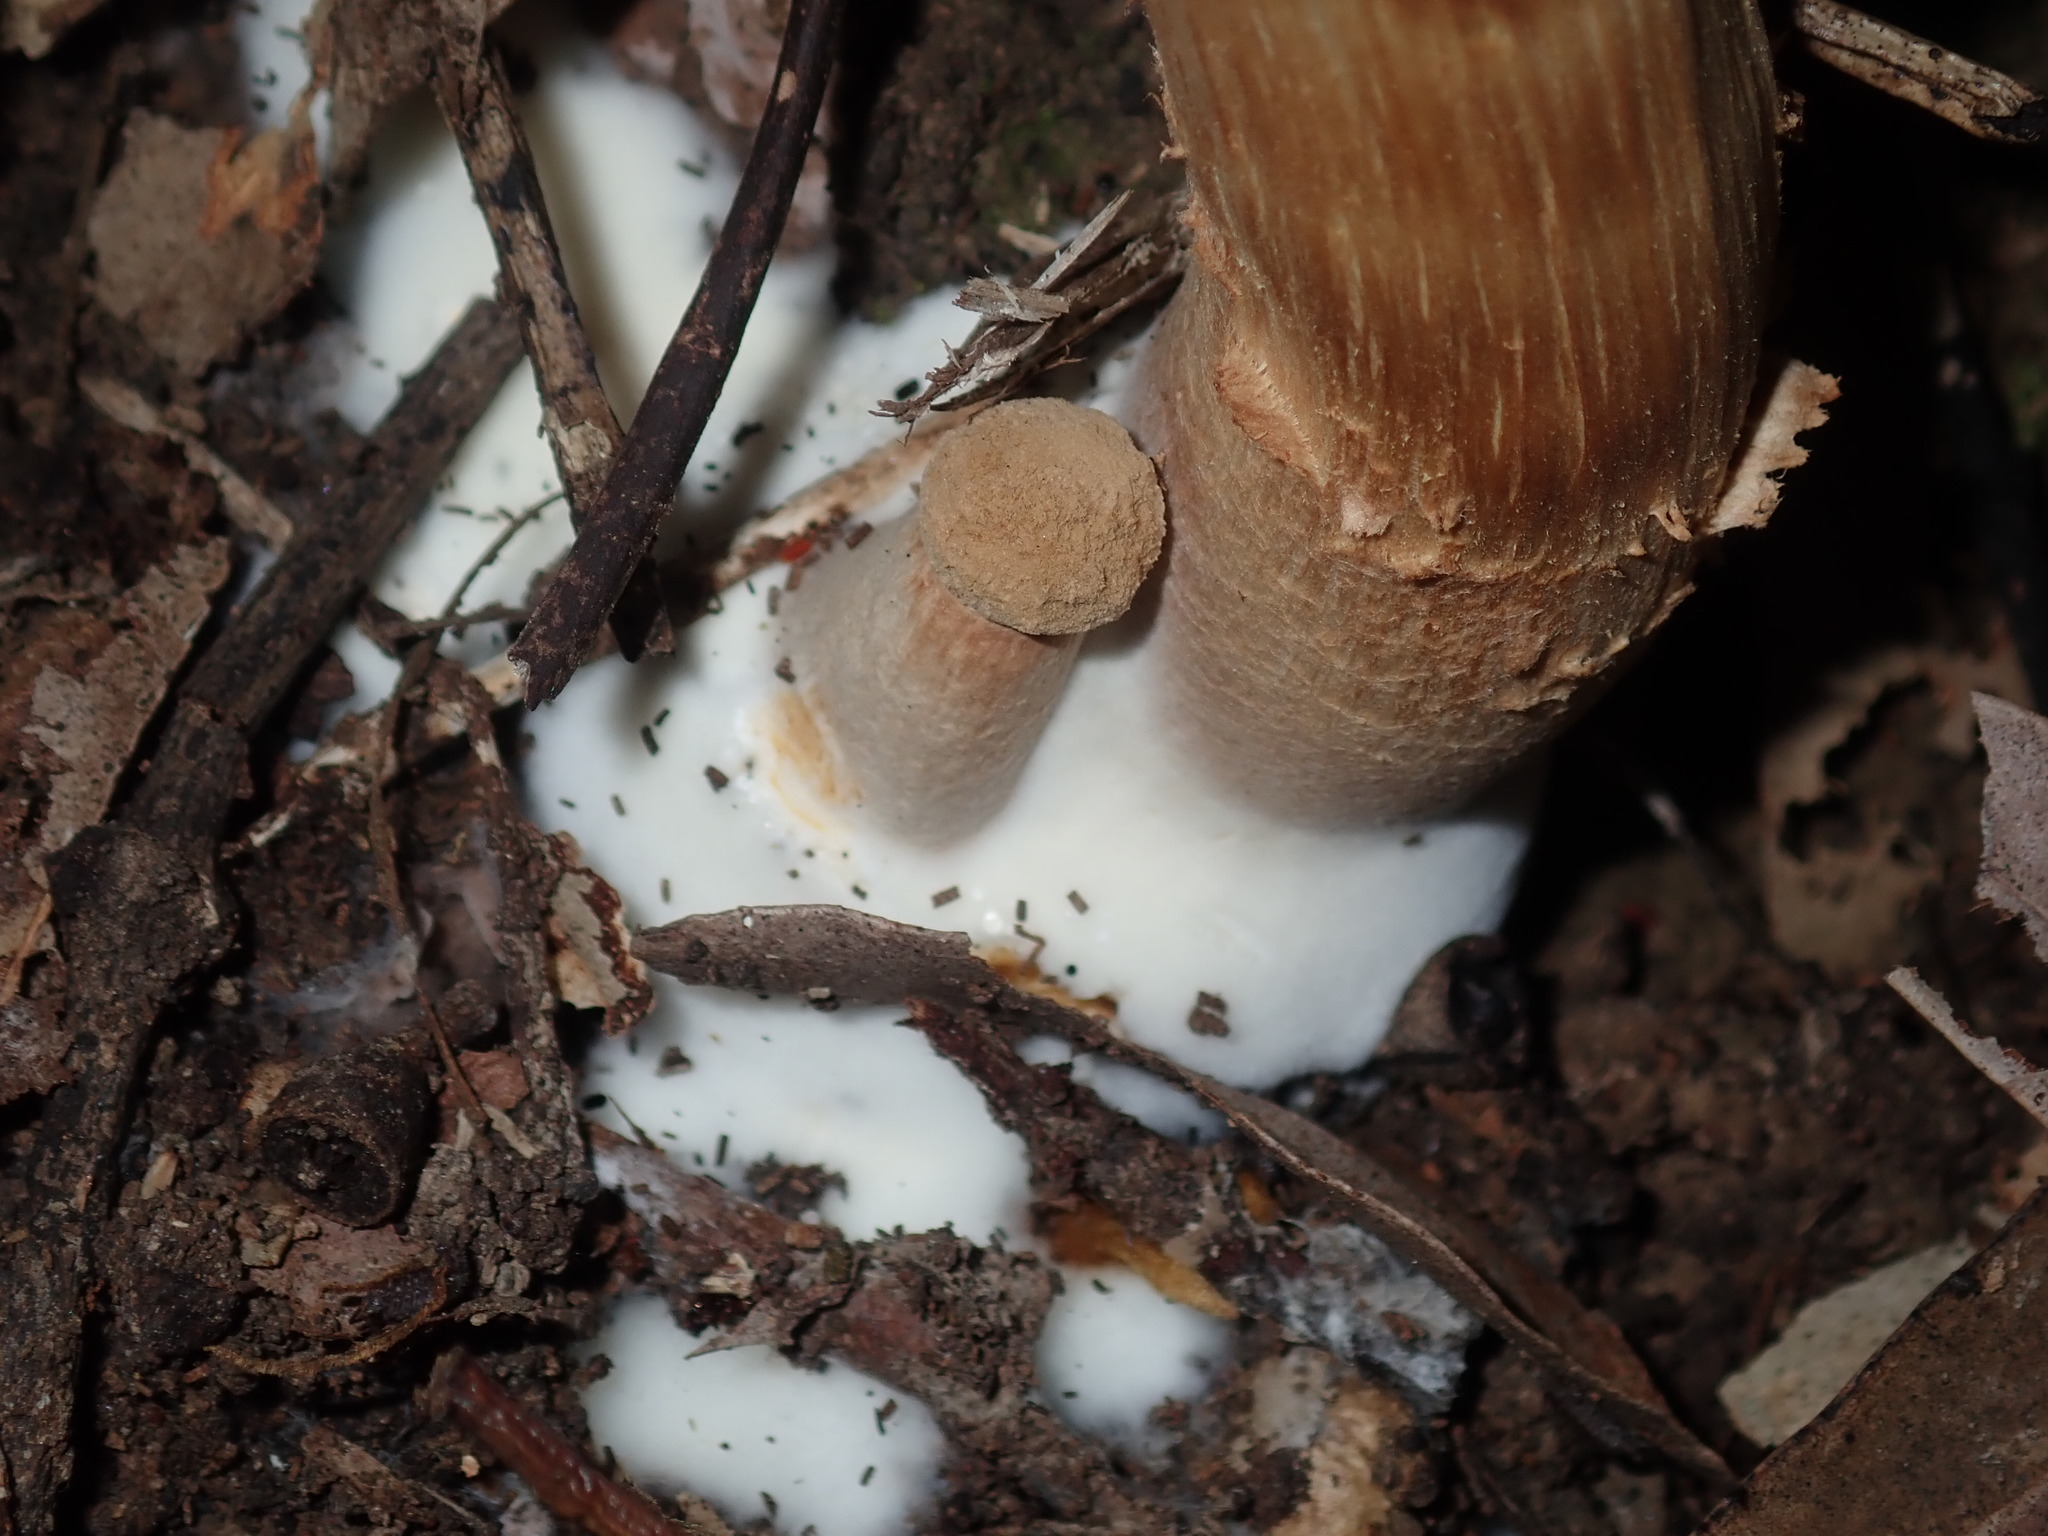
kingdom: Fungi
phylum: Basidiomycota
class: Agaricomycetes
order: Boletales
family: Boletaceae
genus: Boletellus
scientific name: Boletellus deceptivus
